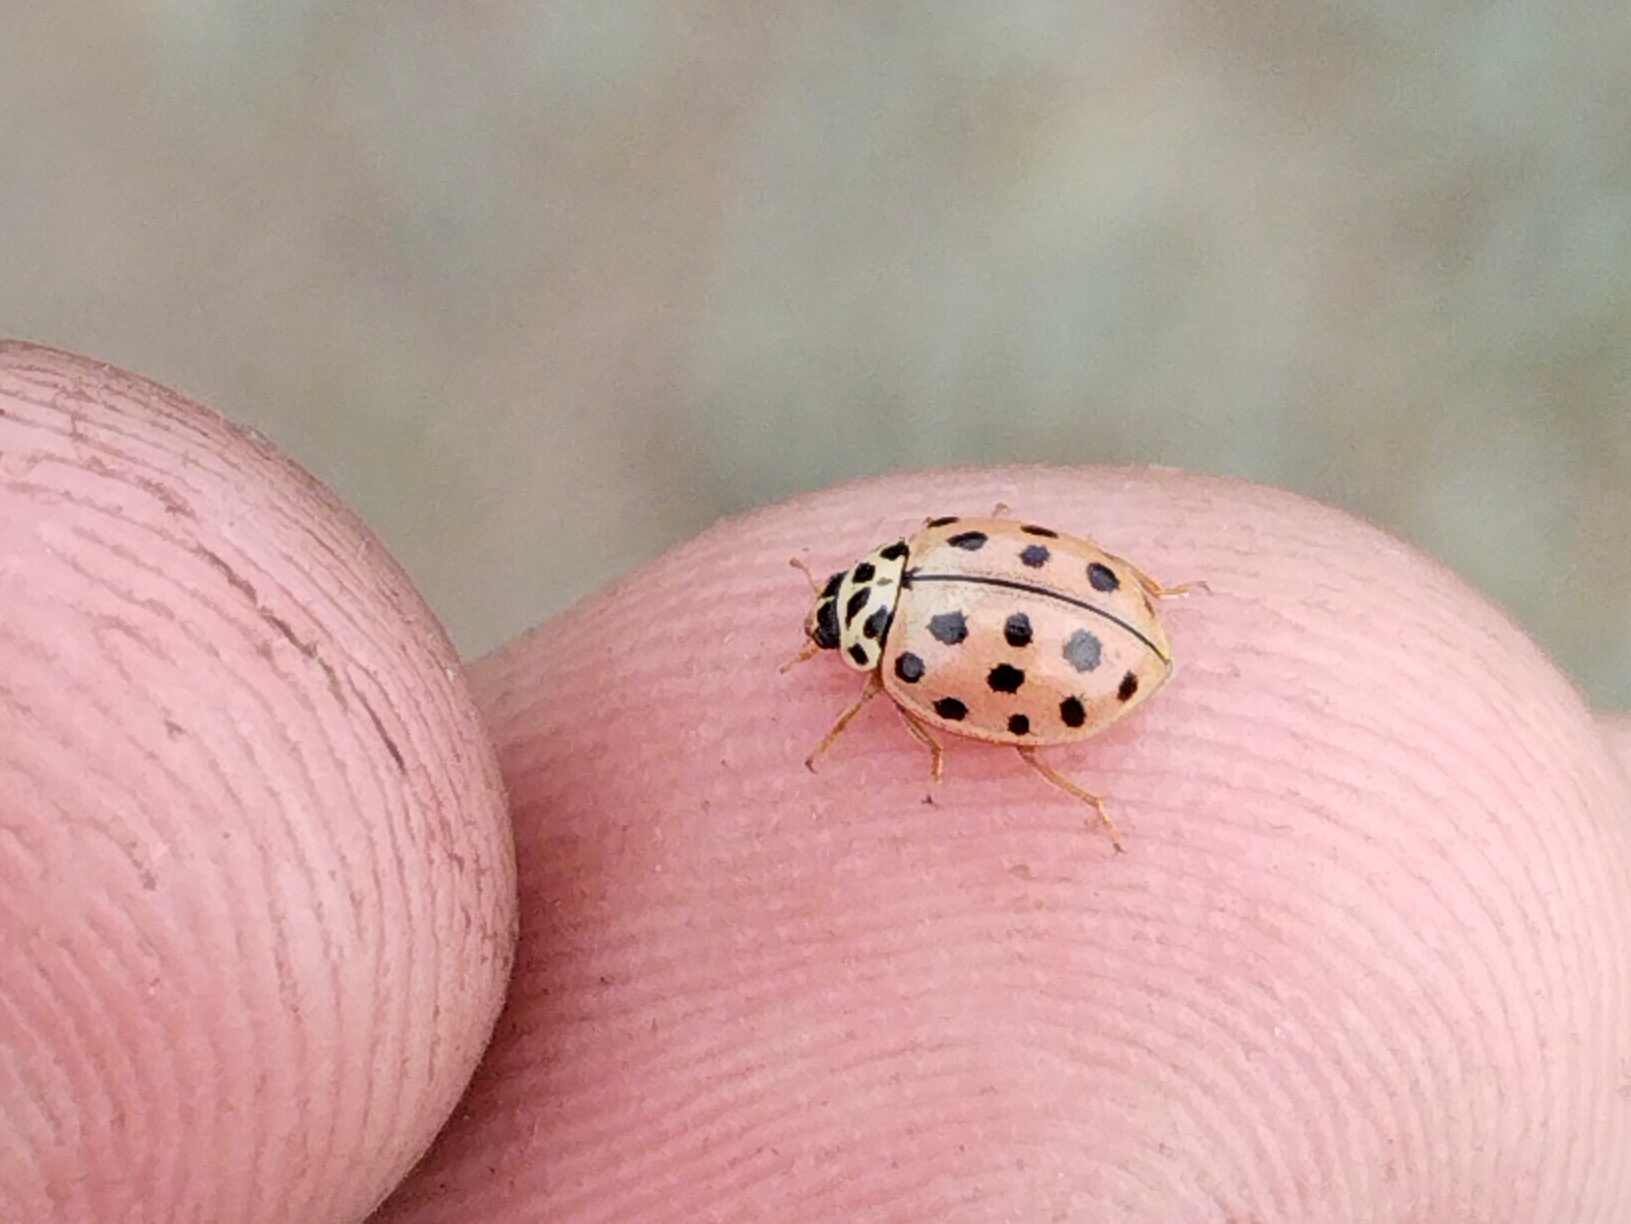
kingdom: Animalia
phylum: Arthropoda
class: Insecta
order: Coleoptera
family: Coccinellidae
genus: Bulaea
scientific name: Bulaea lichatschovi
